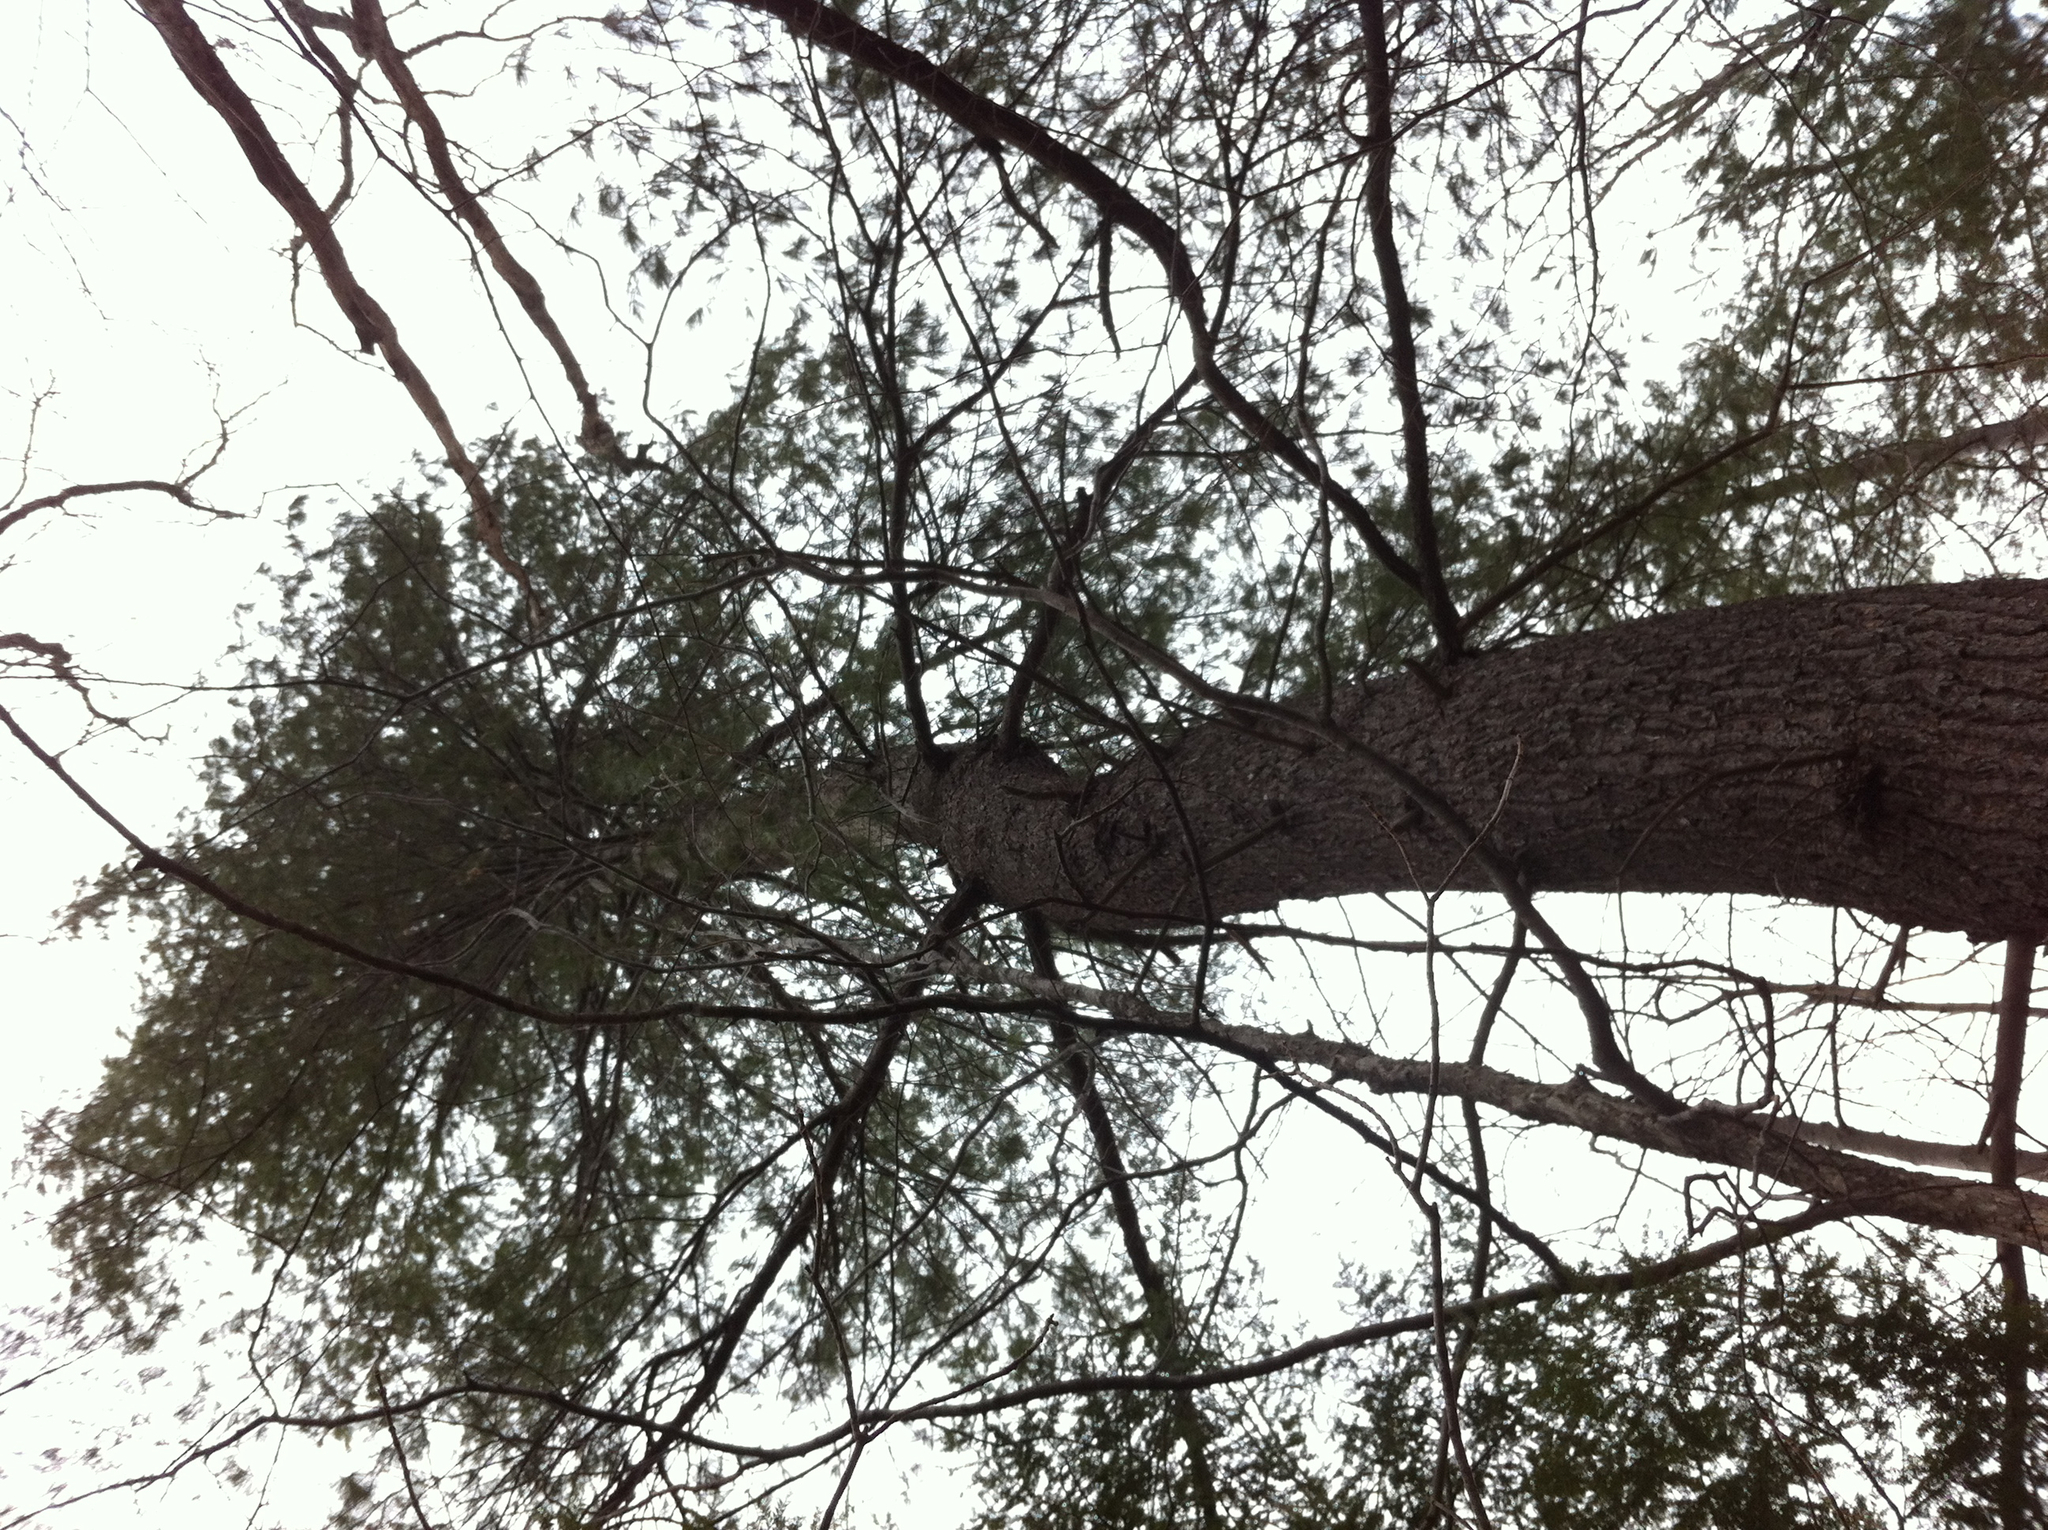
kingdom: Plantae
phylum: Tracheophyta
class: Pinopsida
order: Pinales
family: Pinaceae
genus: Pinus
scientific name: Pinus strobus
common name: Weymouth pine
